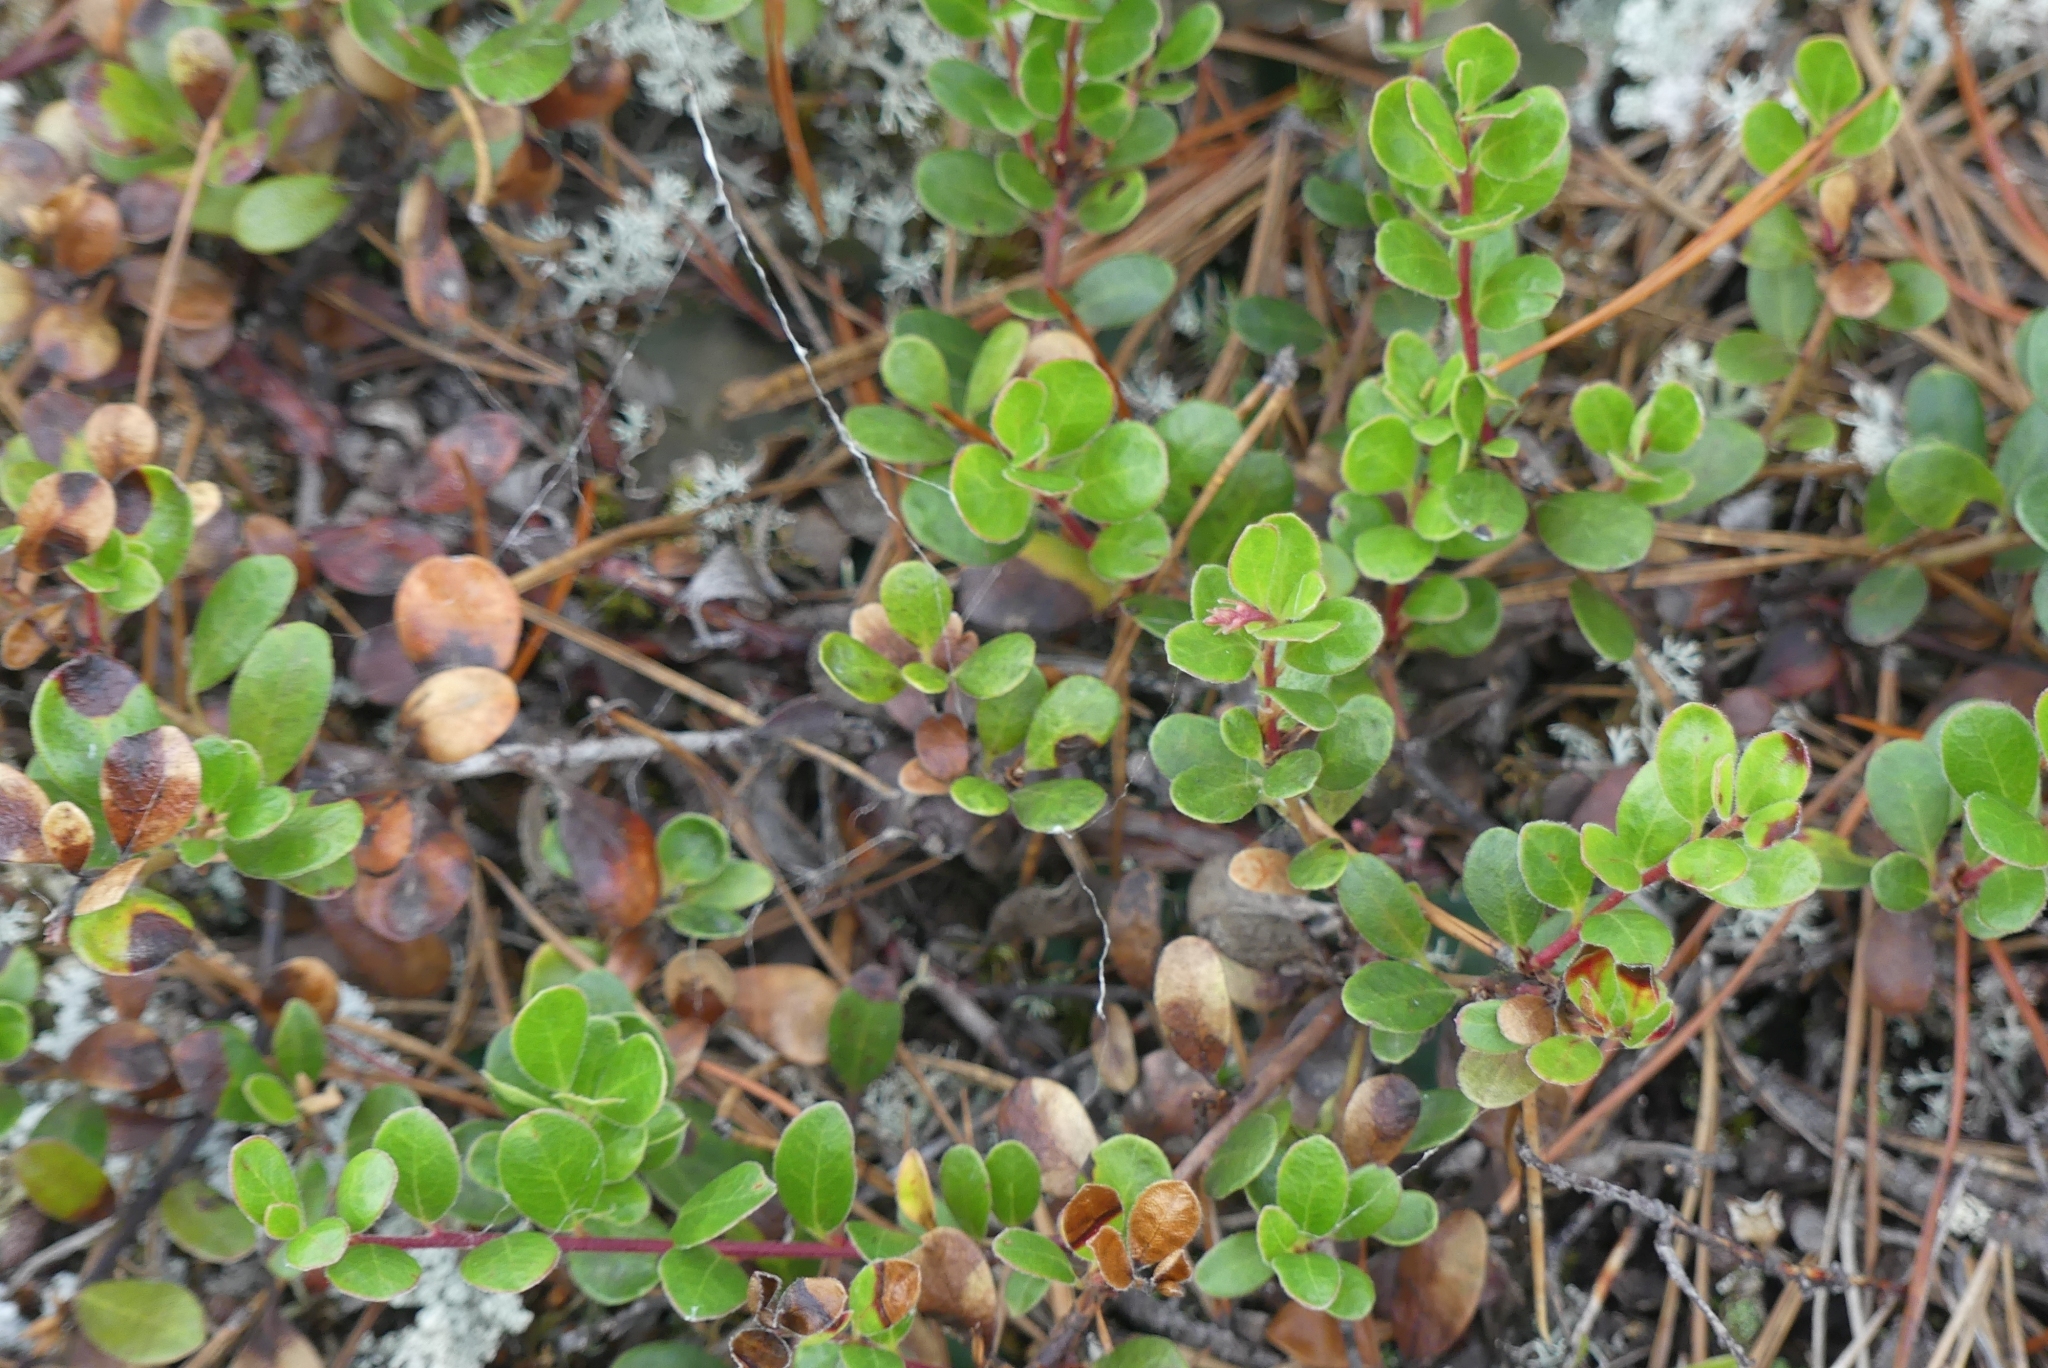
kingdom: Plantae
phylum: Tracheophyta
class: Magnoliopsida
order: Ericales
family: Ericaceae
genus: Arctostaphylos
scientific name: Arctostaphylos uva-ursi
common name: Bearberry
